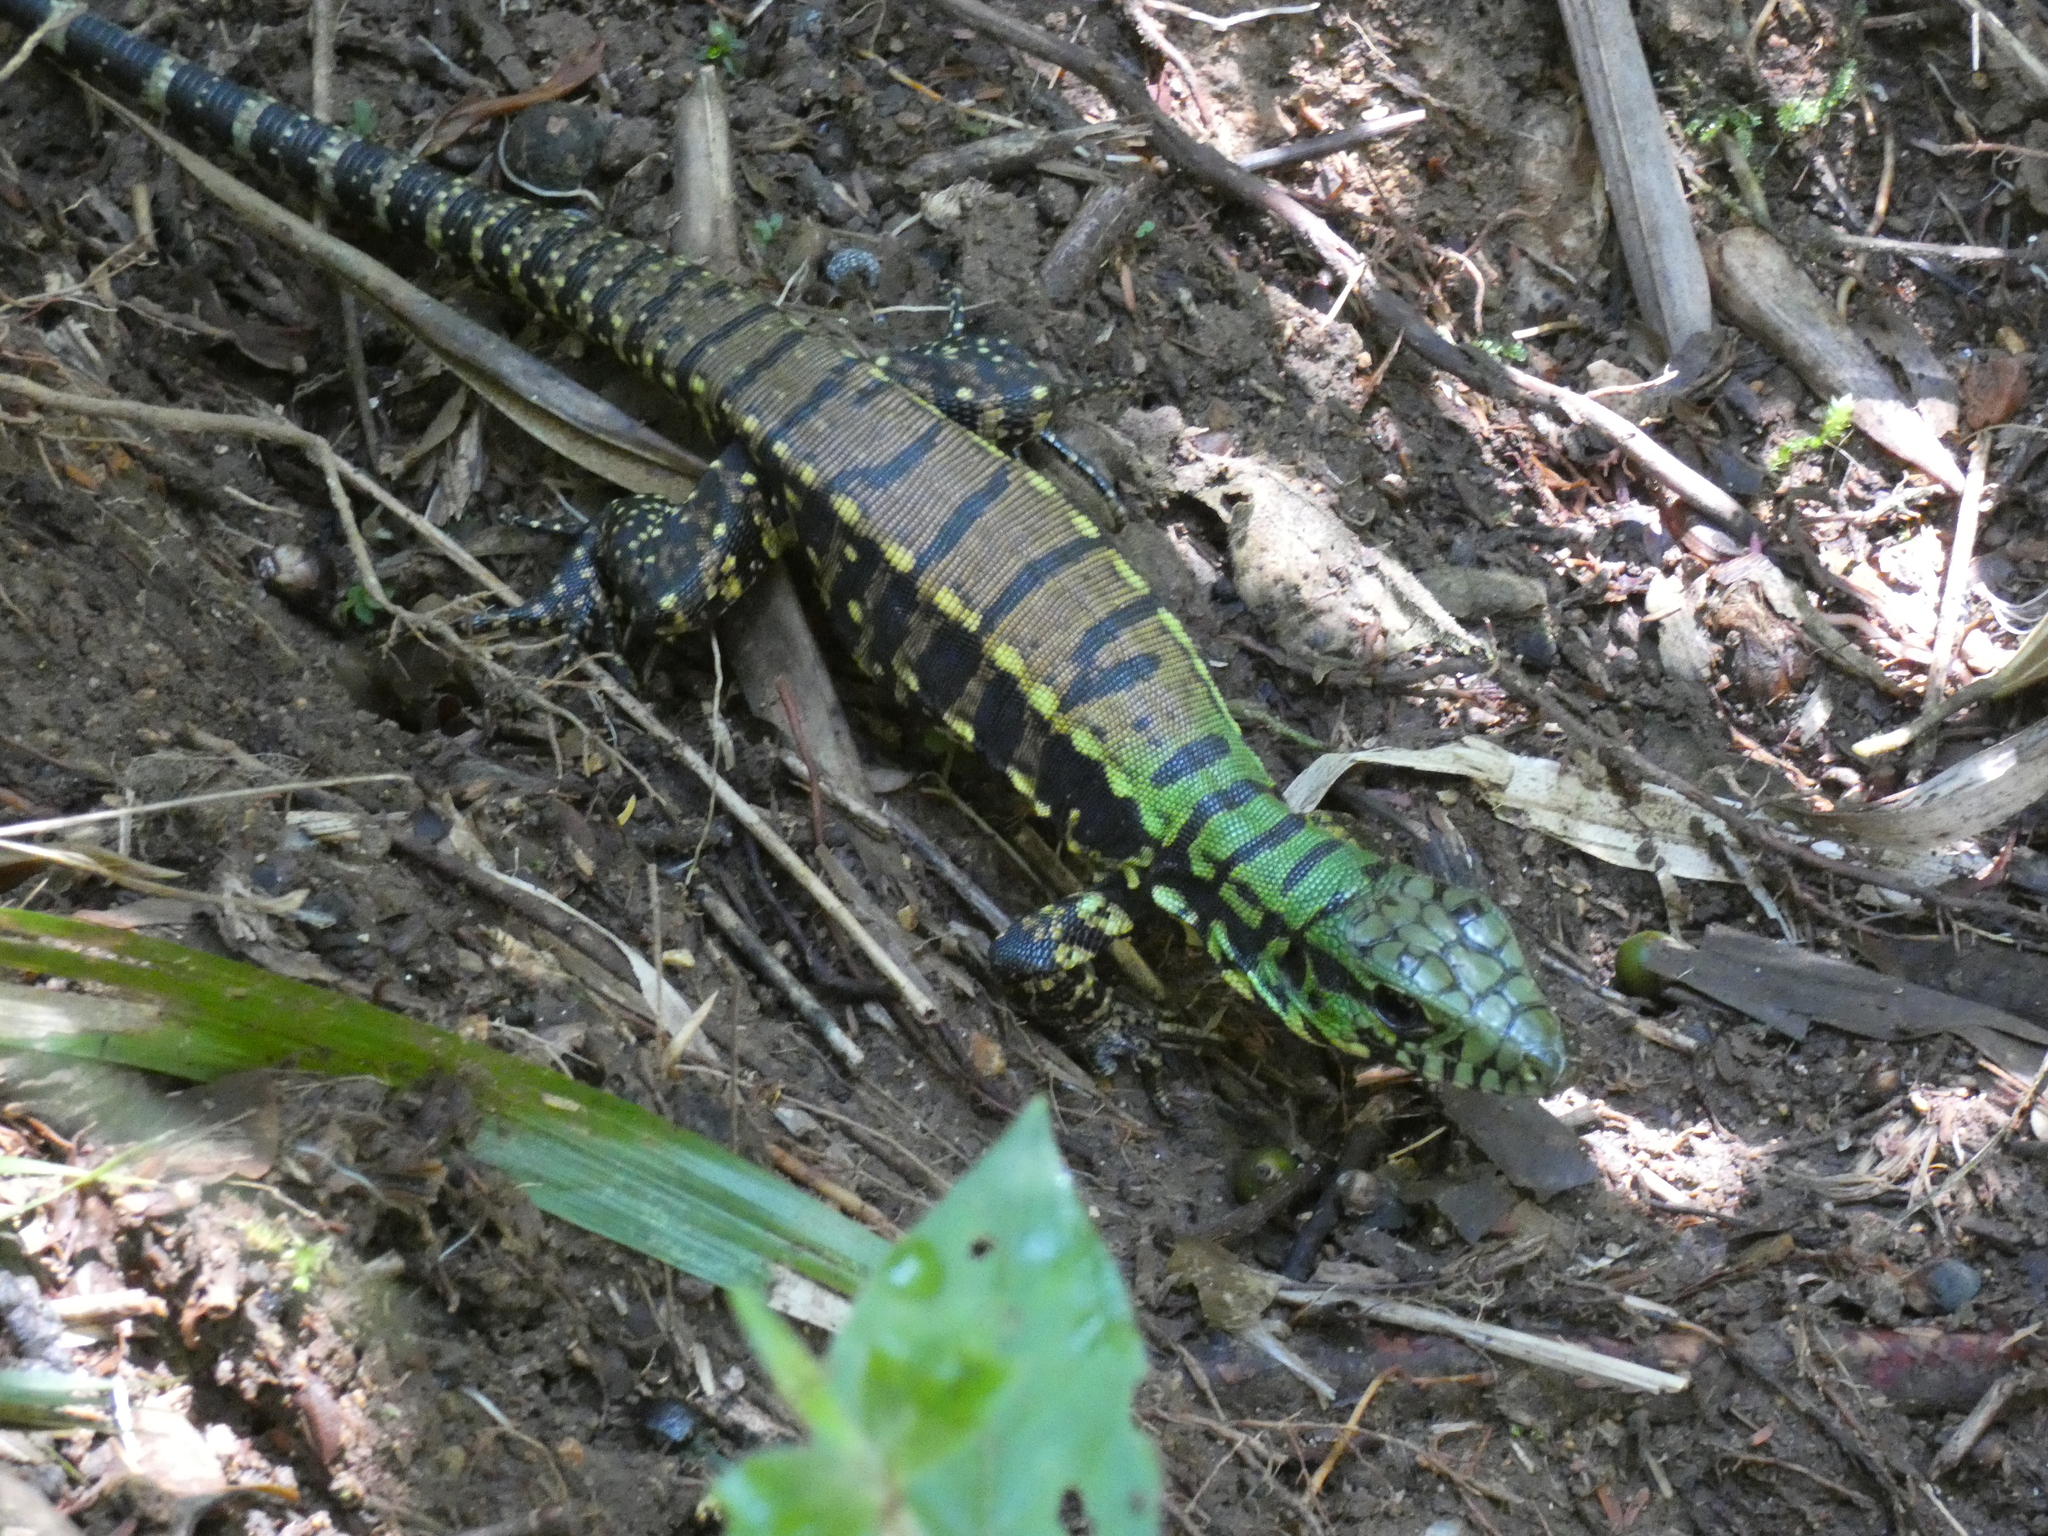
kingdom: Animalia
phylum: Chordata
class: Squamata
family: Teiidae
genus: Salvator
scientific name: Salvator merianae
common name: Argentine black and white tegu
